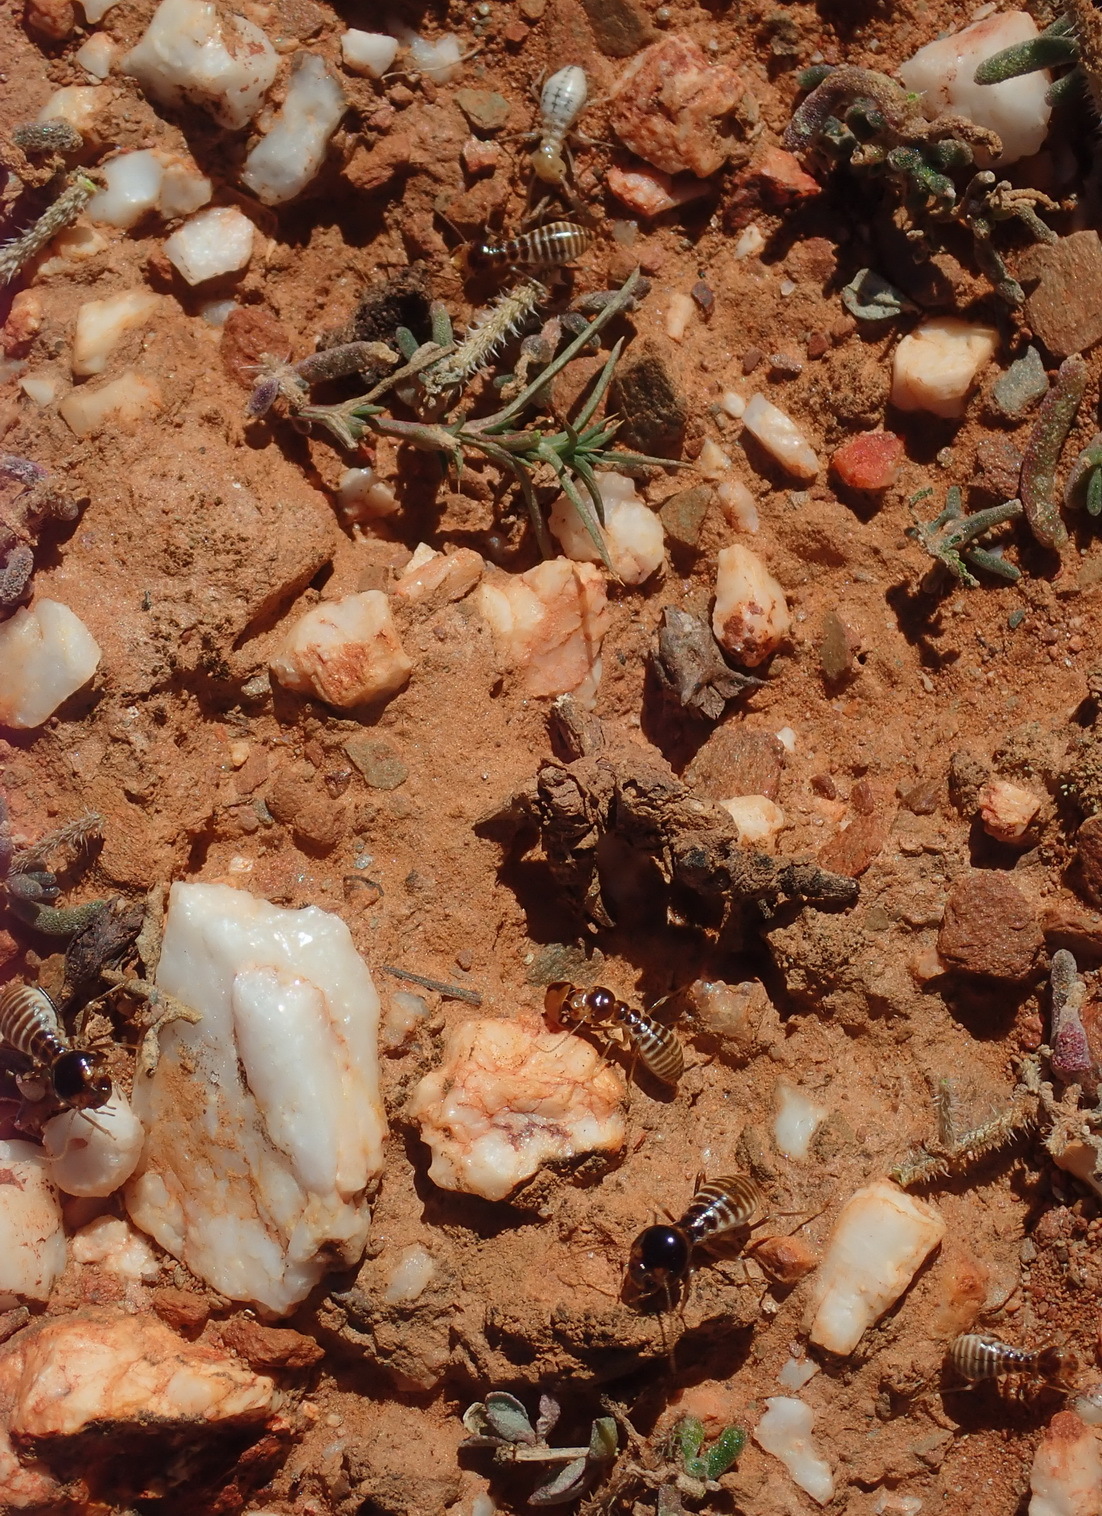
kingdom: Animalia
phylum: Arthropoda
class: Insecta
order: Blattodea
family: Hodotermitidae
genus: Hodotermes
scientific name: Hodotermes mossambicus
